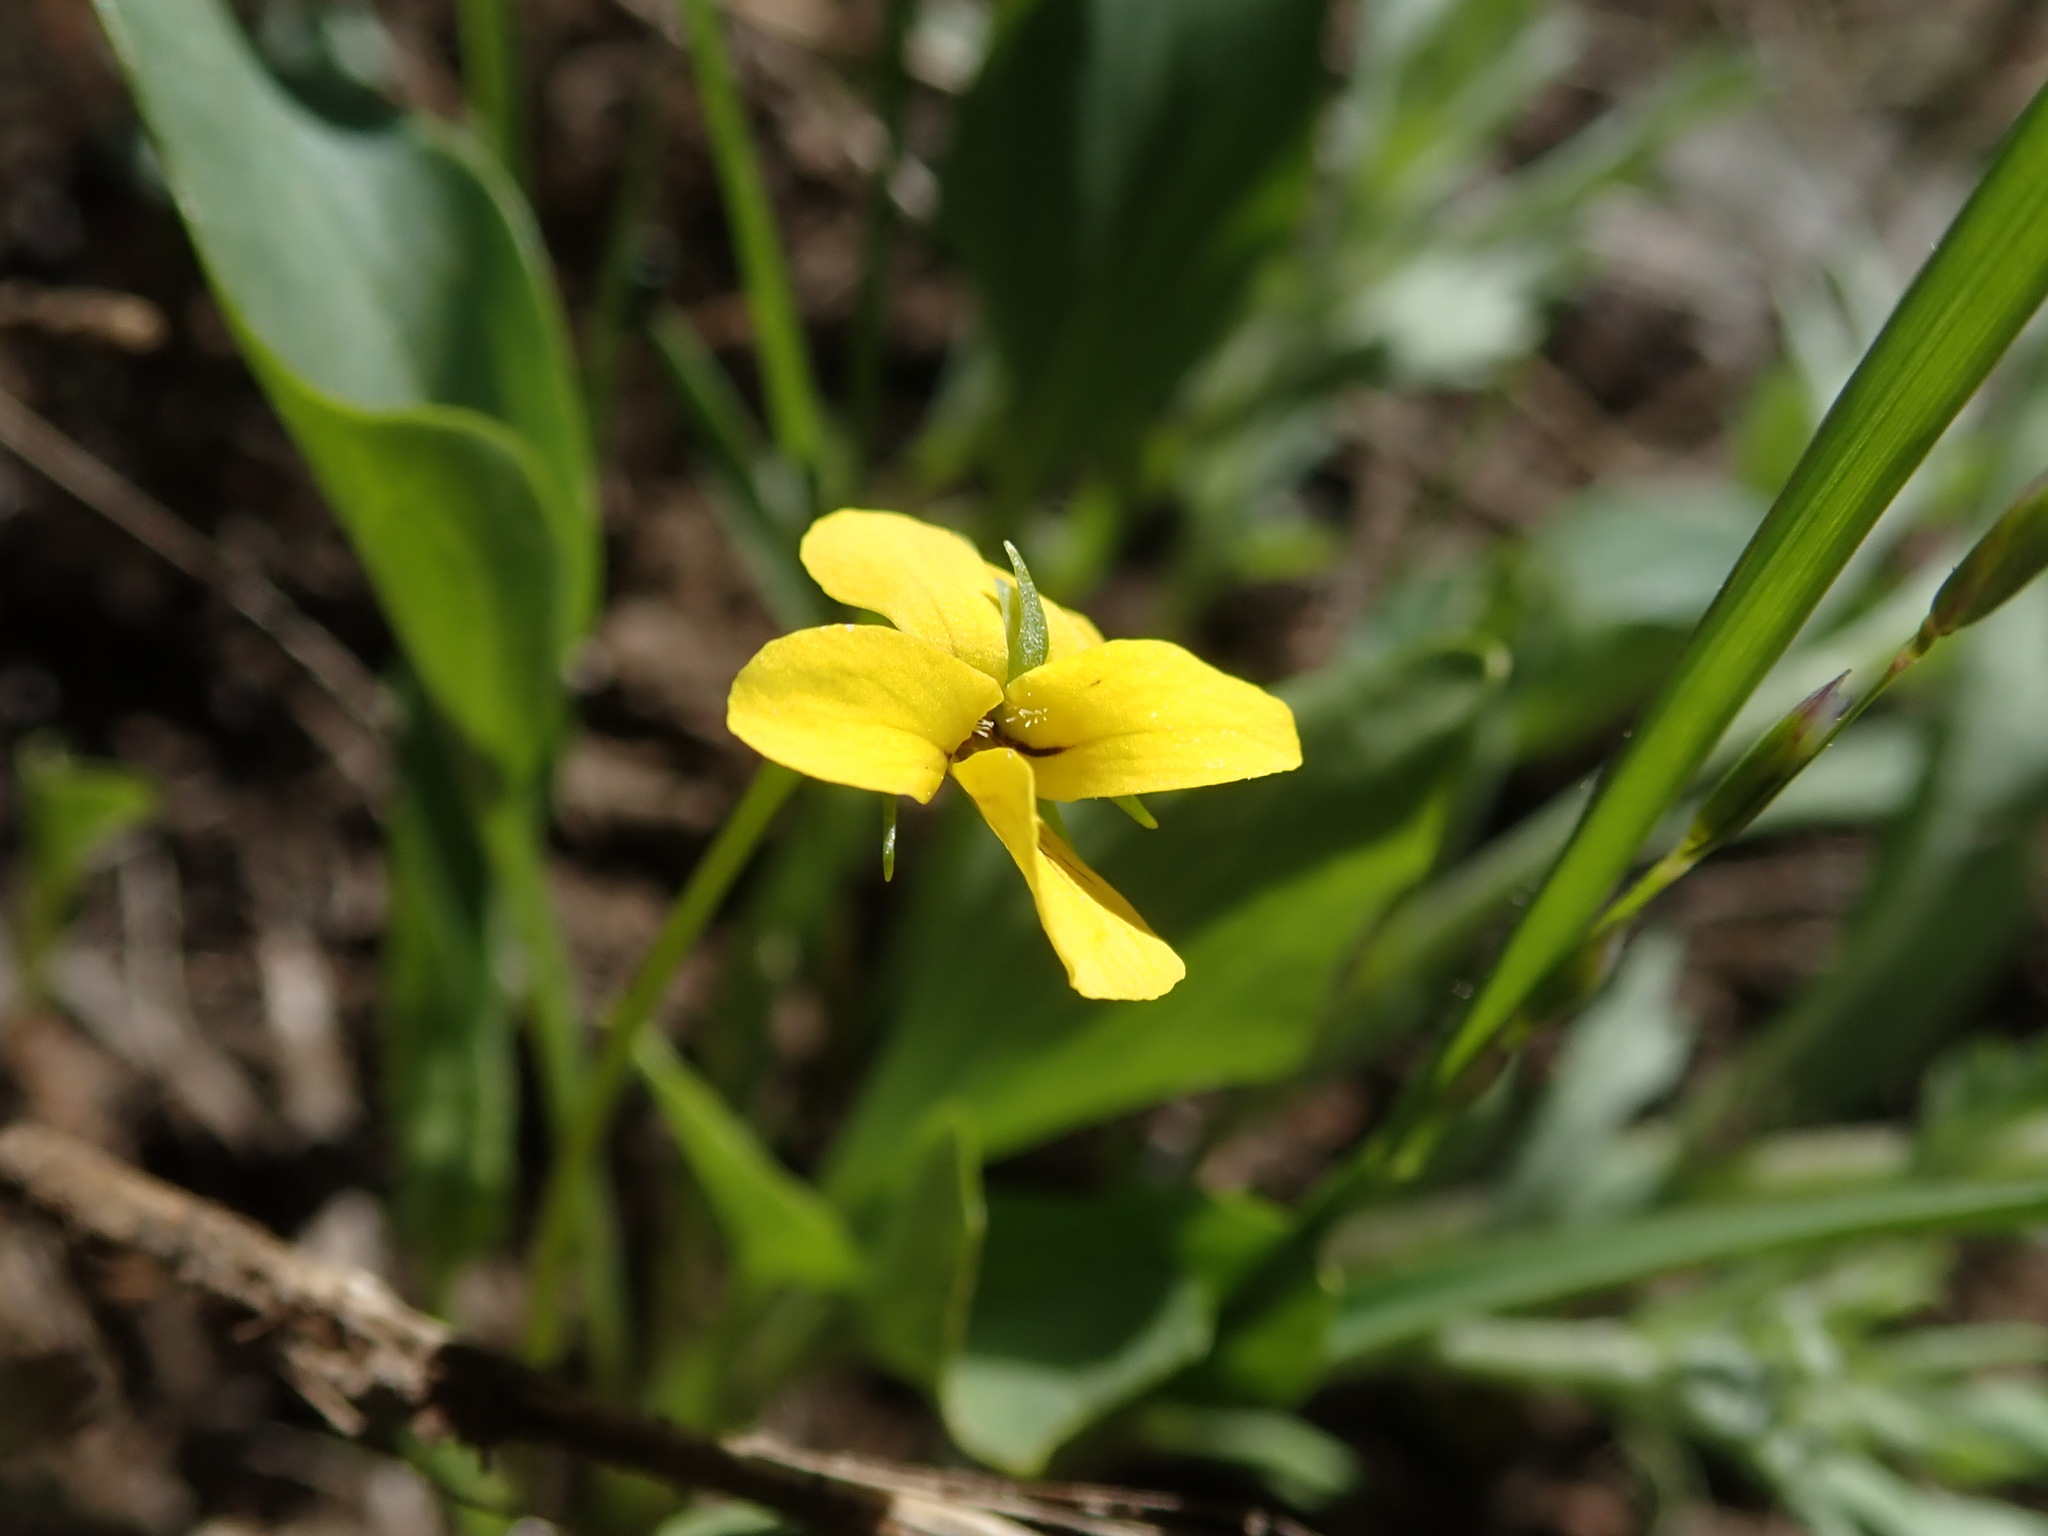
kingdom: Plantae
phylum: Tracheophyta
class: Magnoliopsida
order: Malpighiales
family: Violaceae
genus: Viola
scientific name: Viola bakeri
